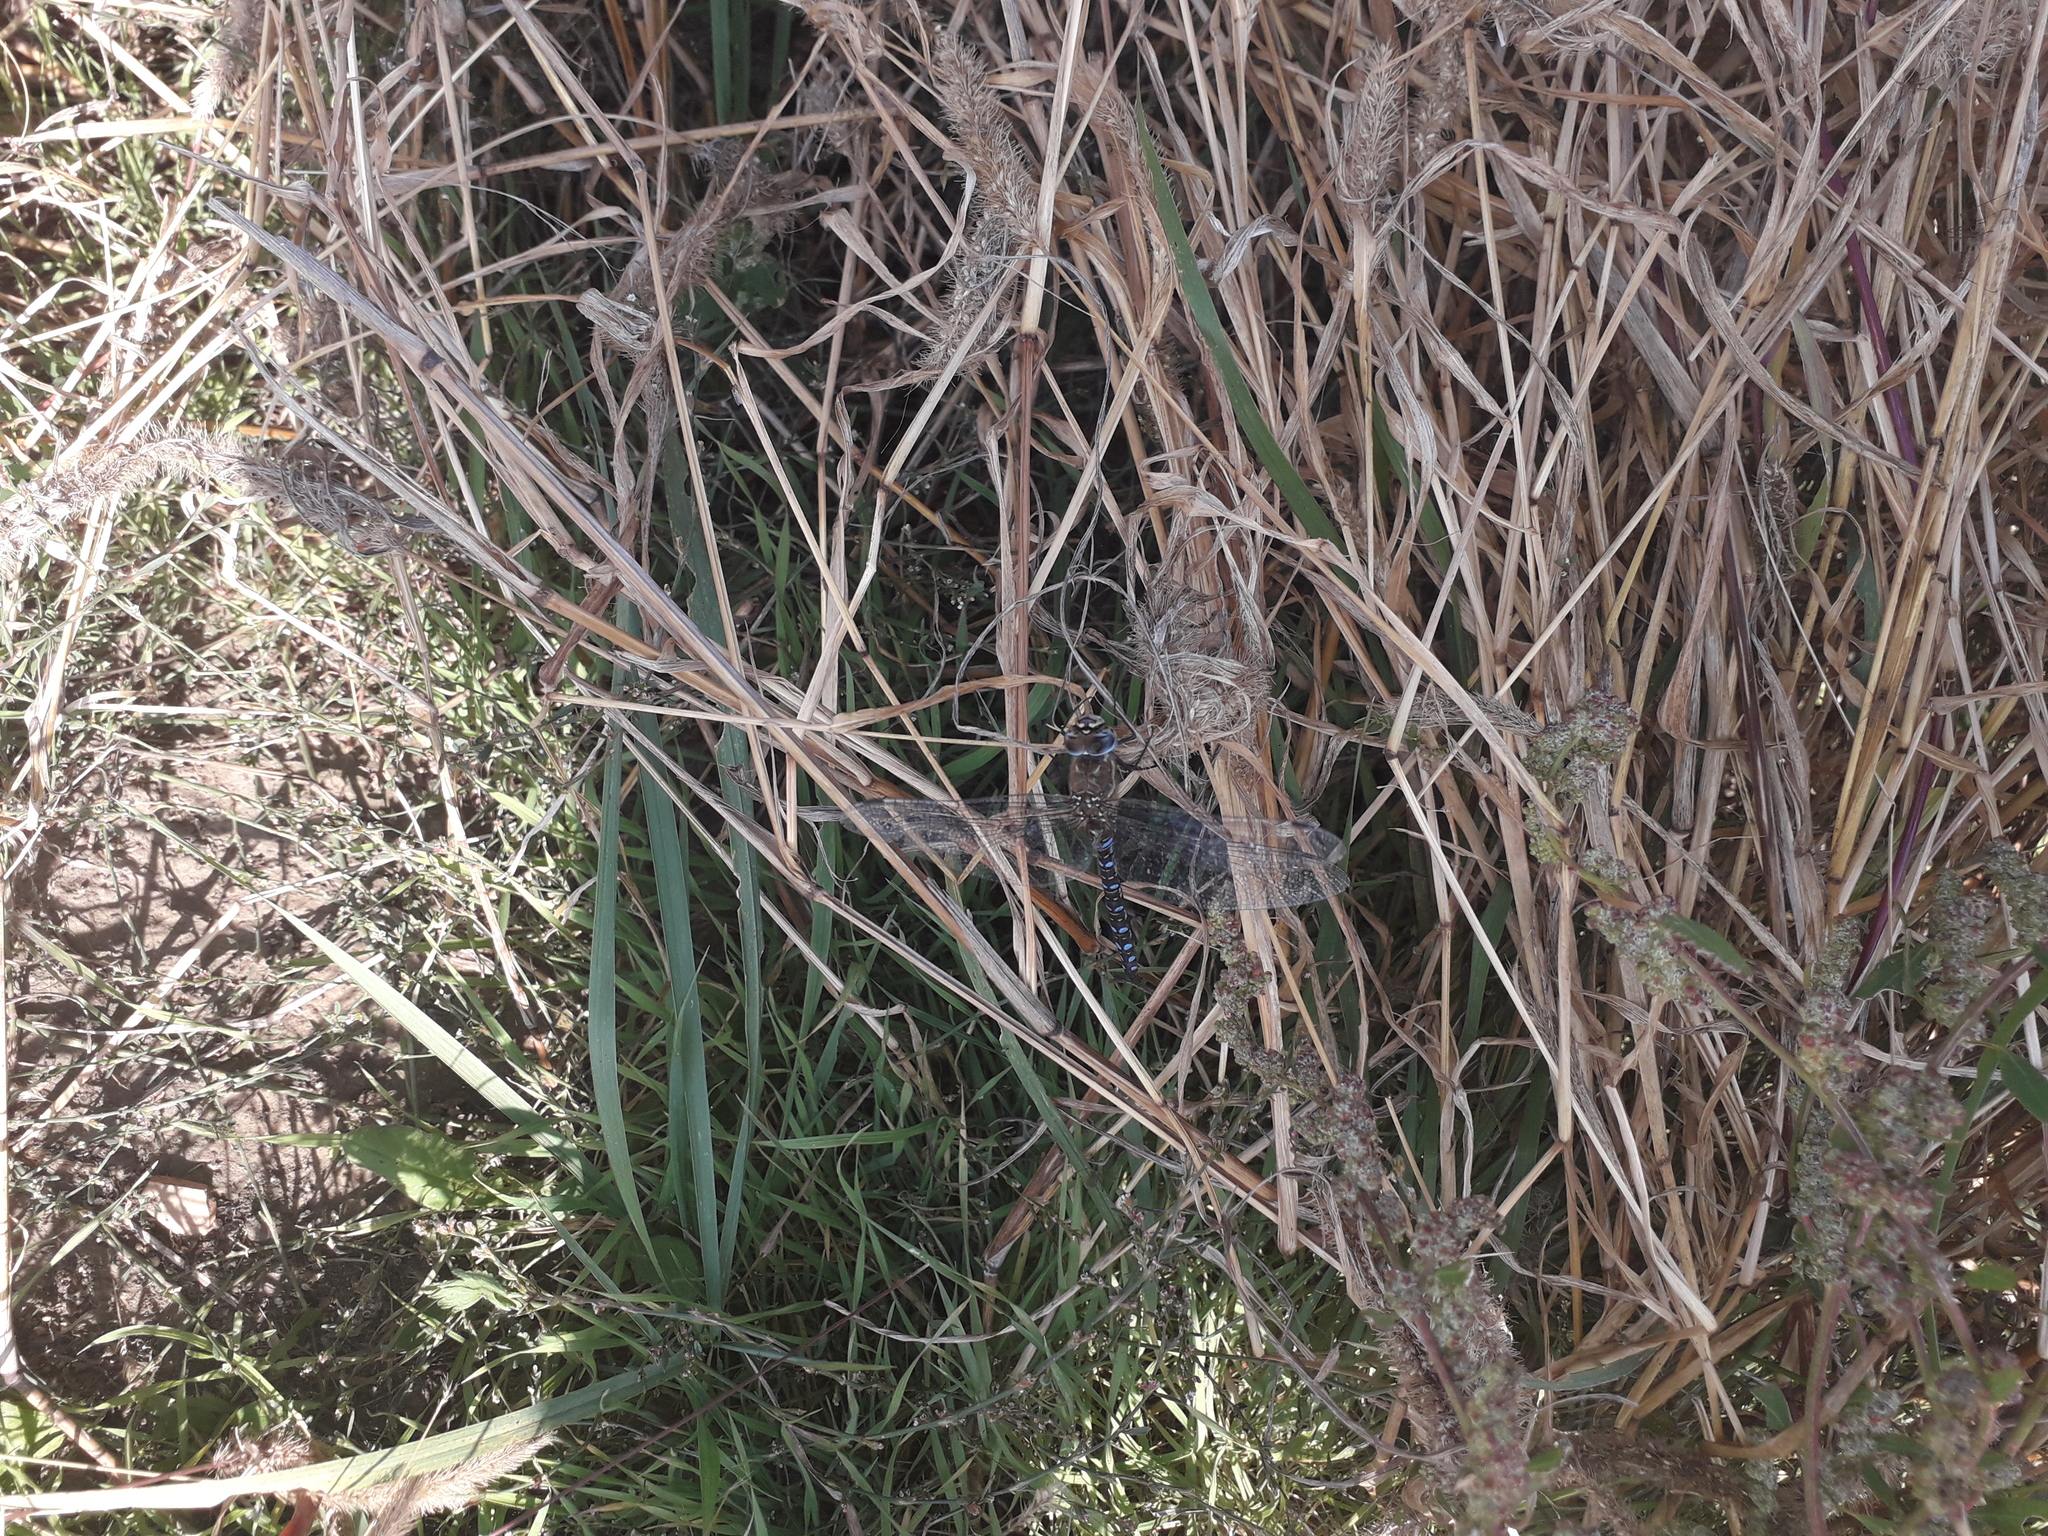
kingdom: Animalia
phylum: Arthropoda
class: Insecta
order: Odonata
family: Aeshnidae
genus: Aeshna
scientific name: Aeshna mixta
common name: Migrant hawker
